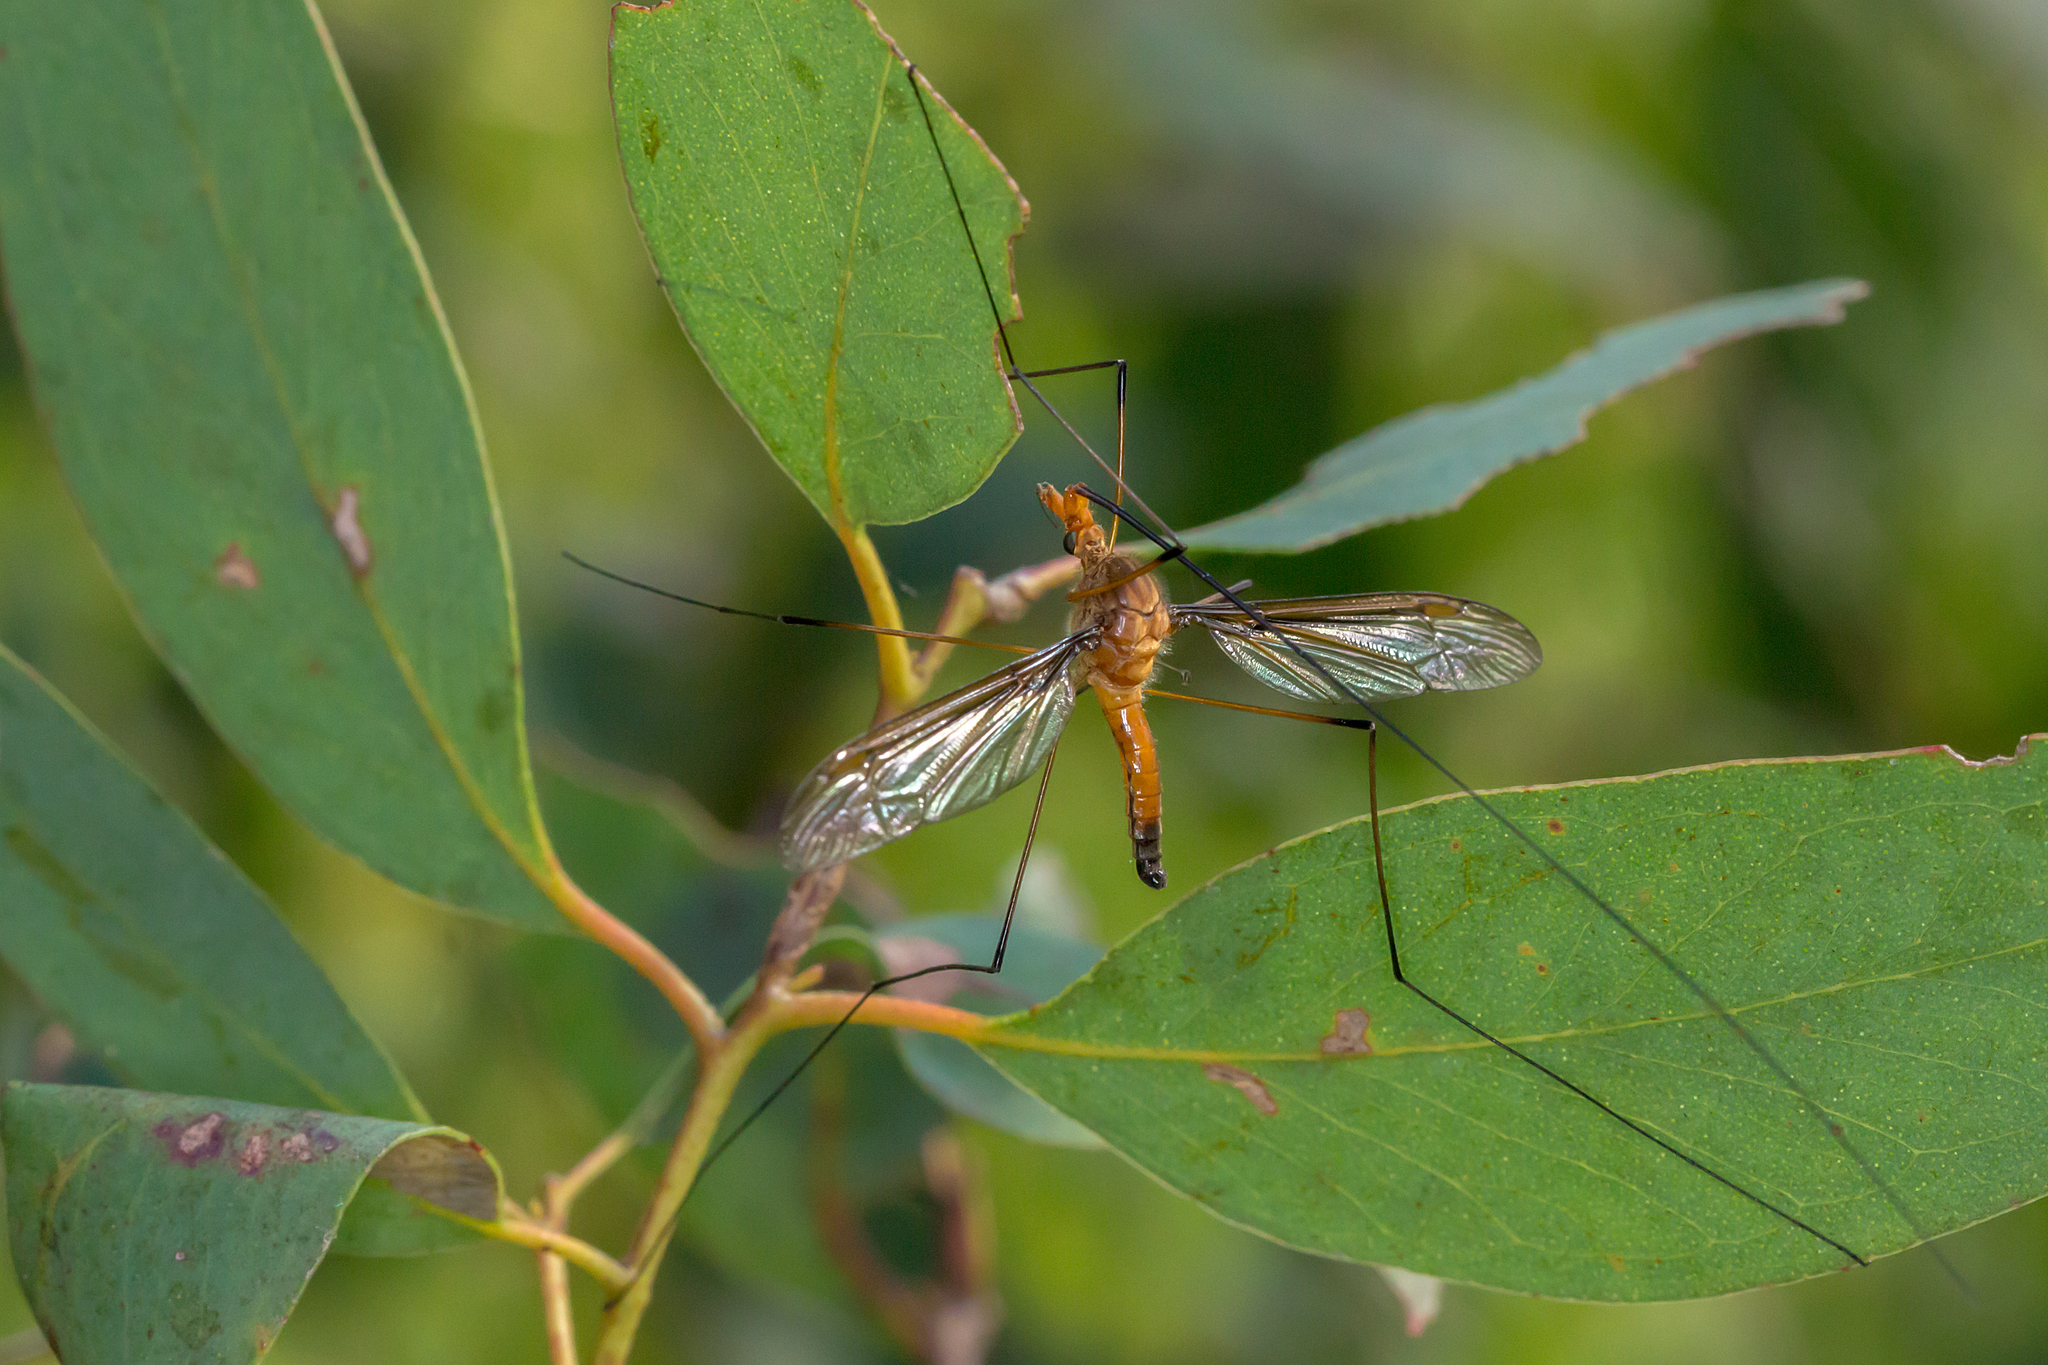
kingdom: Animalia
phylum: Arthropoda
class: Insecta
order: Diptera
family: Tipulidae
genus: Leptotarsus
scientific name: Leptotarsus costalis
